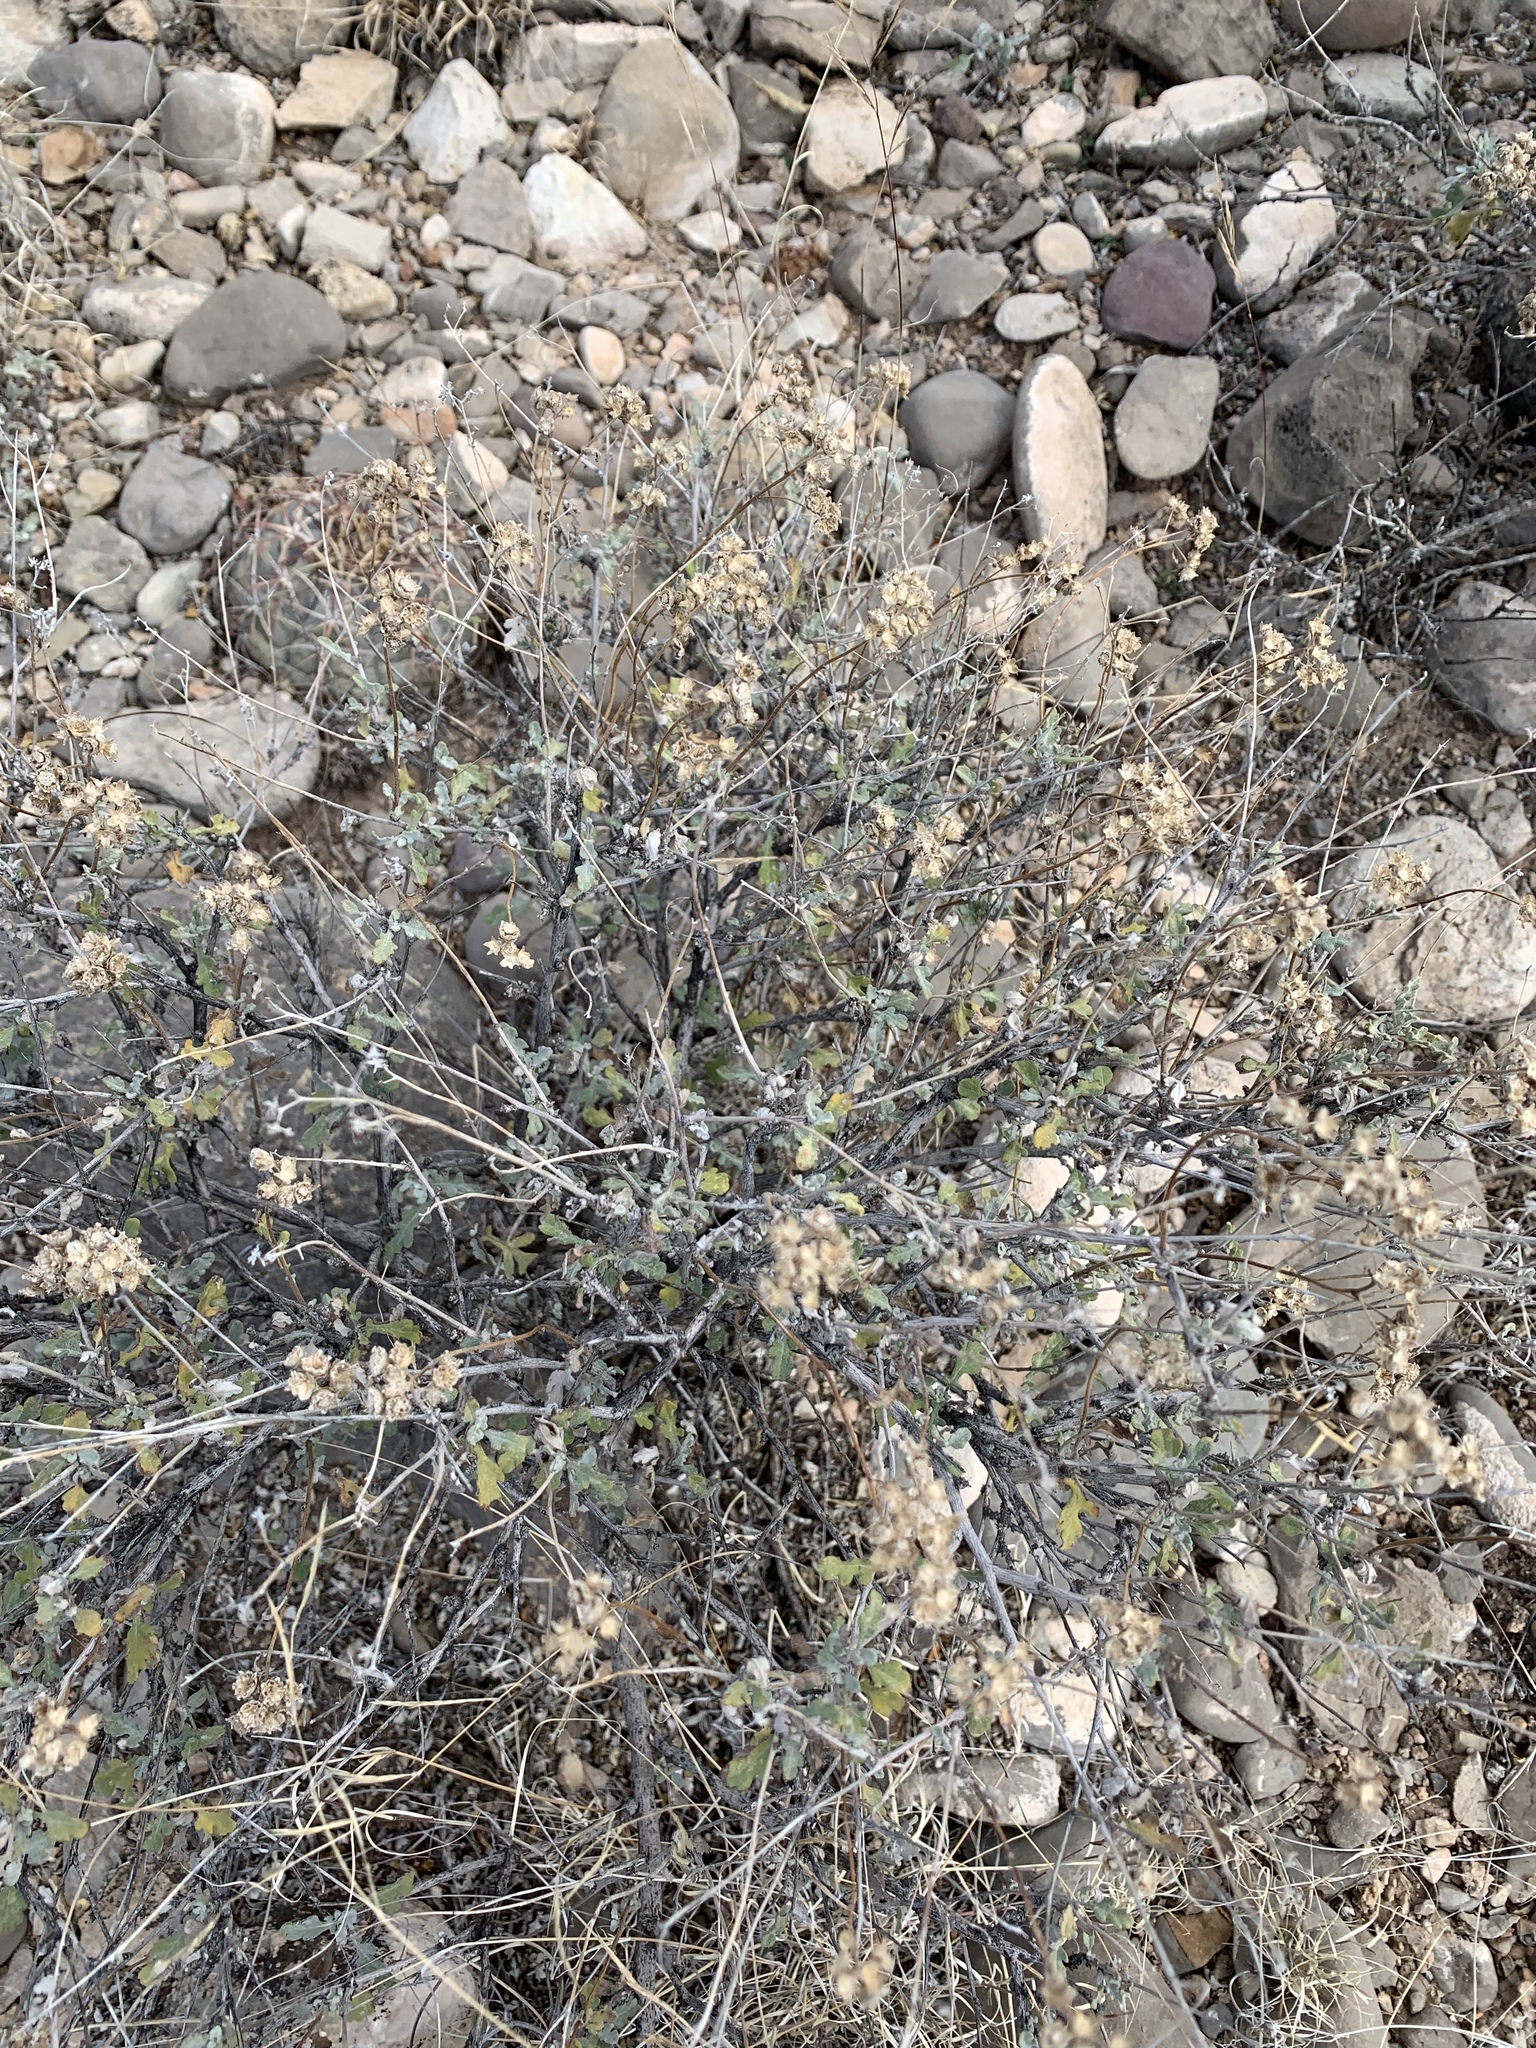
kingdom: Plantae
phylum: Tracheophyta
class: Magnoliopsida
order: Asterales
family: Asteraceae
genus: Parthenium
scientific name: Parthenium incanum
